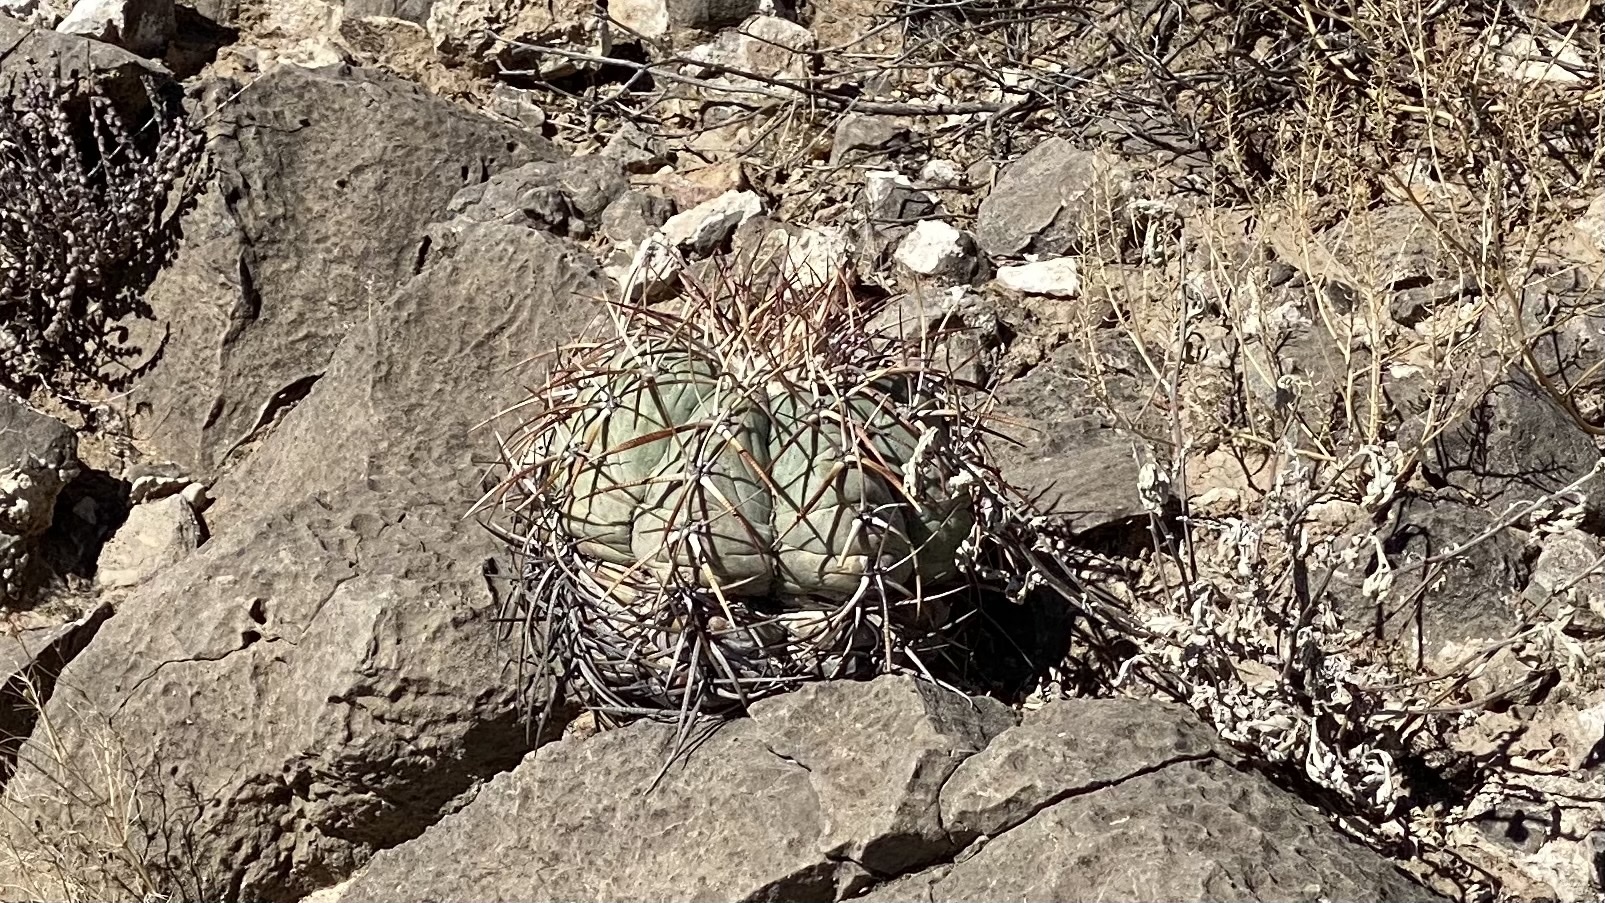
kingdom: Plantae
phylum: Tracheophyta
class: Magnoliopsida
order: Caryophyllales
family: Cactaceae
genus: Echinocactus
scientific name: Echinocactus horizonthalonius
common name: Devilshead
